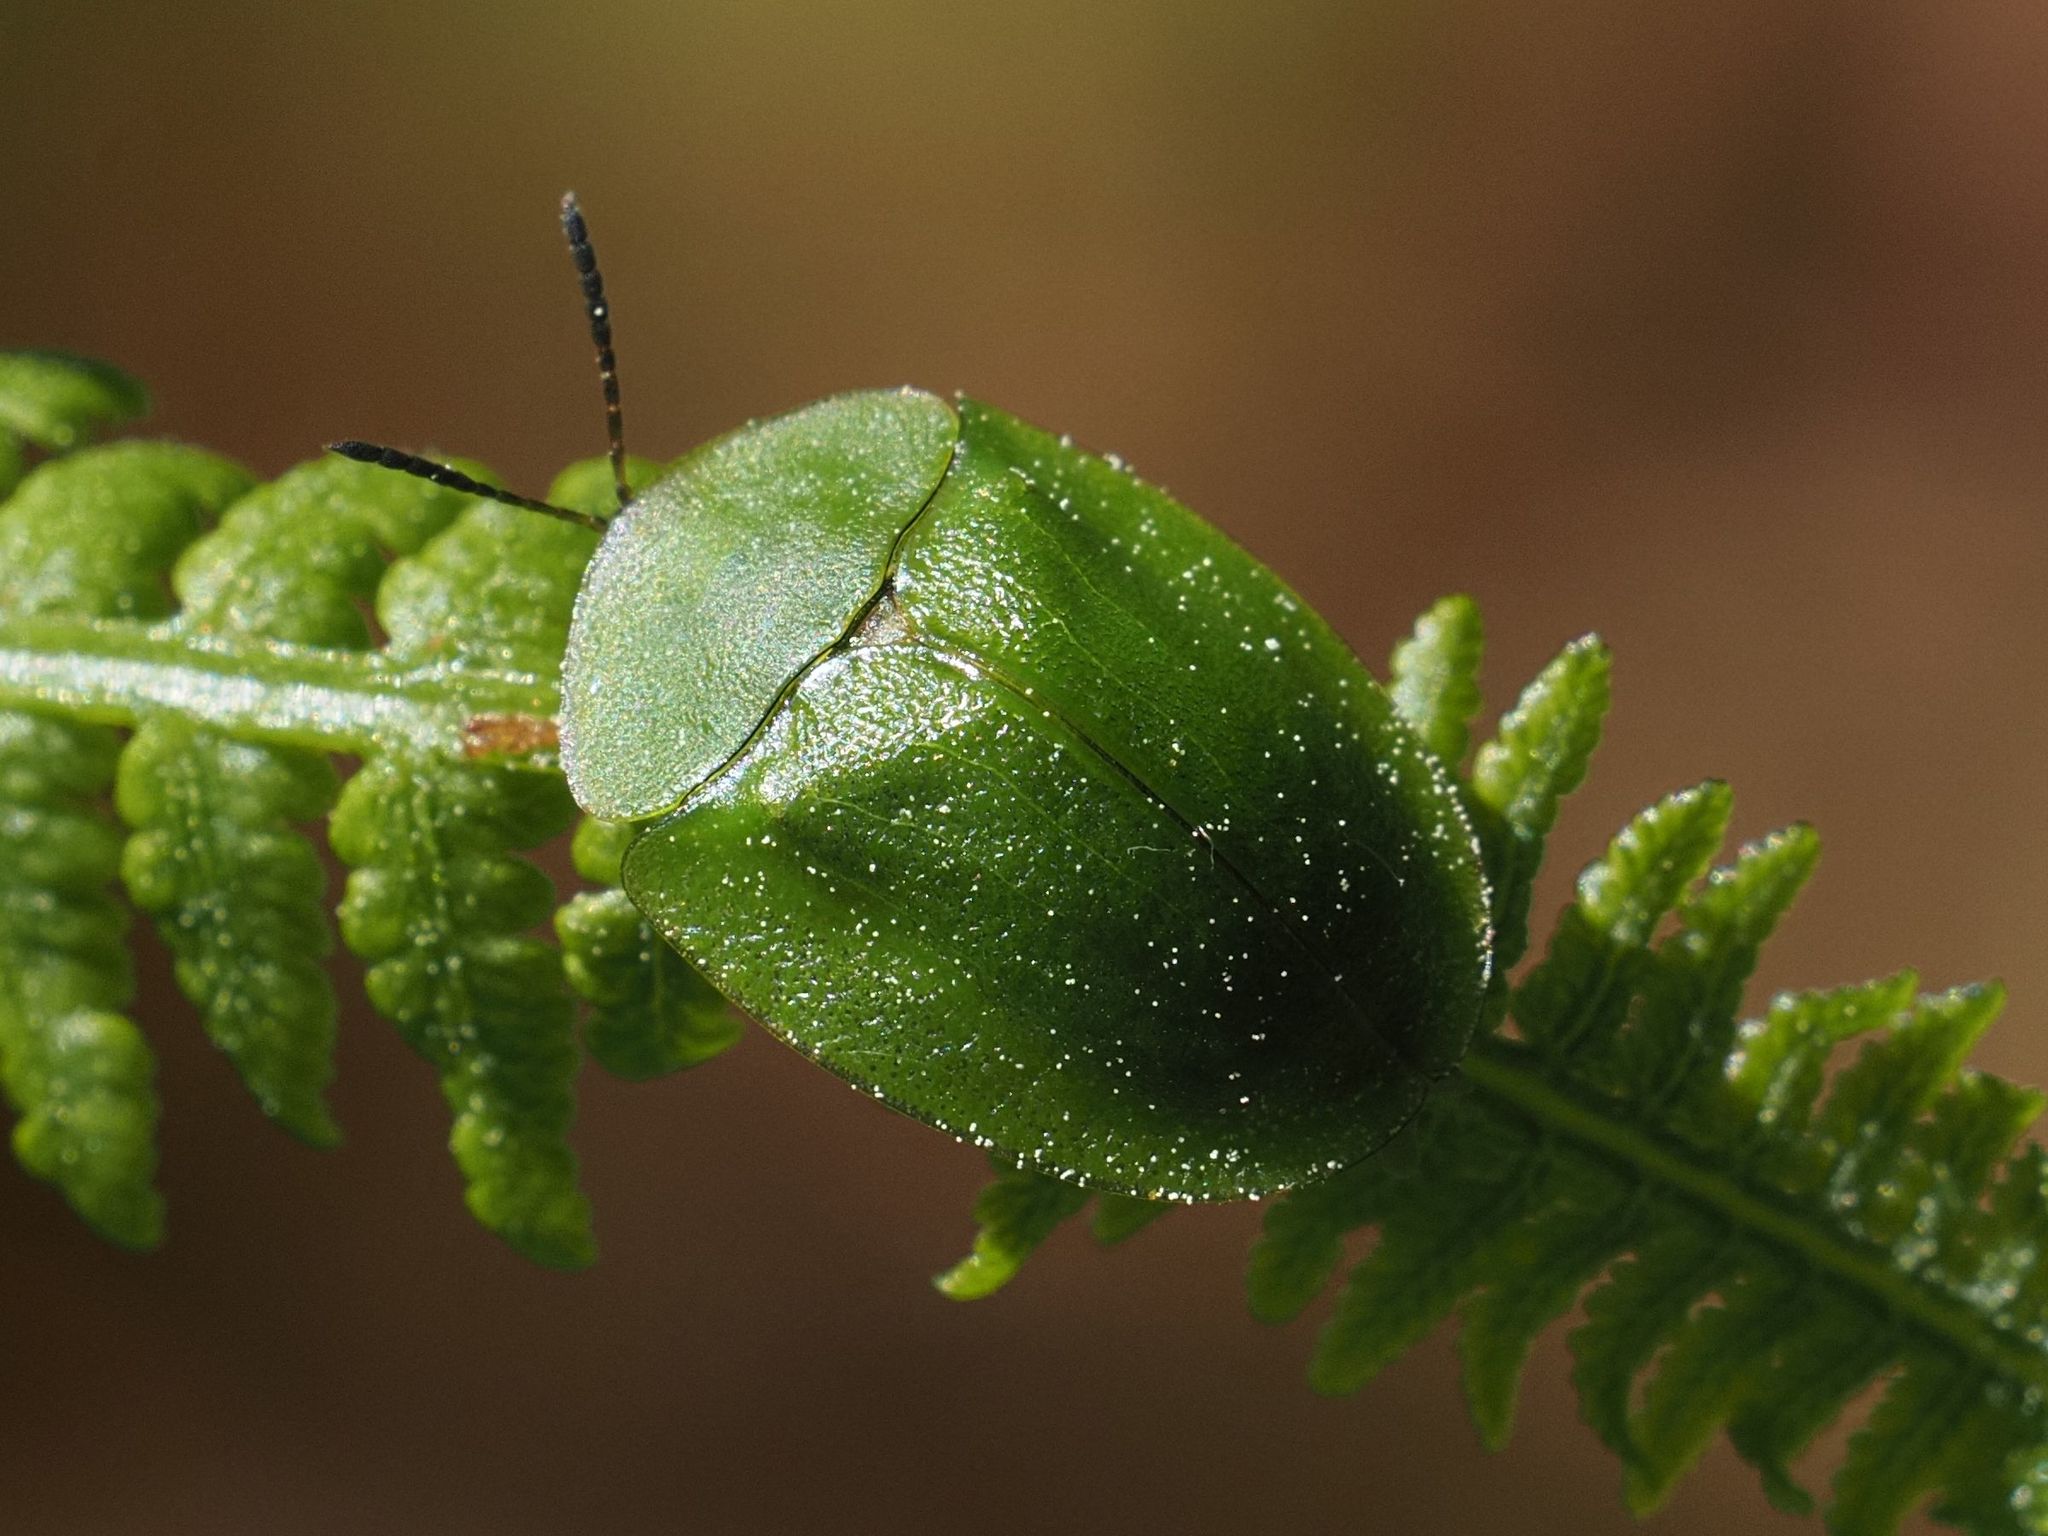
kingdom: Animalia
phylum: Arthropoda
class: Insecta
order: Coleoptera
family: Chrysomelidae
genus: Cassida
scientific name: Cassida viridis
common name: Green tortoise beetle
